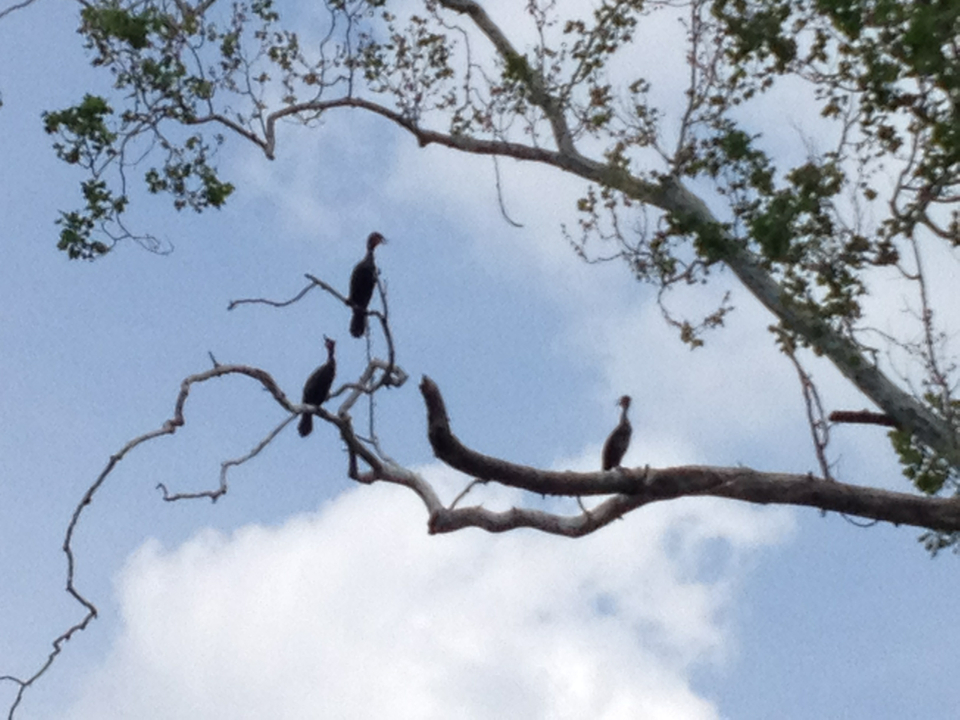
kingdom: Animalia
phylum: Chordata
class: Aves
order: Suliformes
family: Phalacrocoracidae
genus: Phalacrocorax
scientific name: Phalacrocorax auritus
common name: Double-crested cormorant
